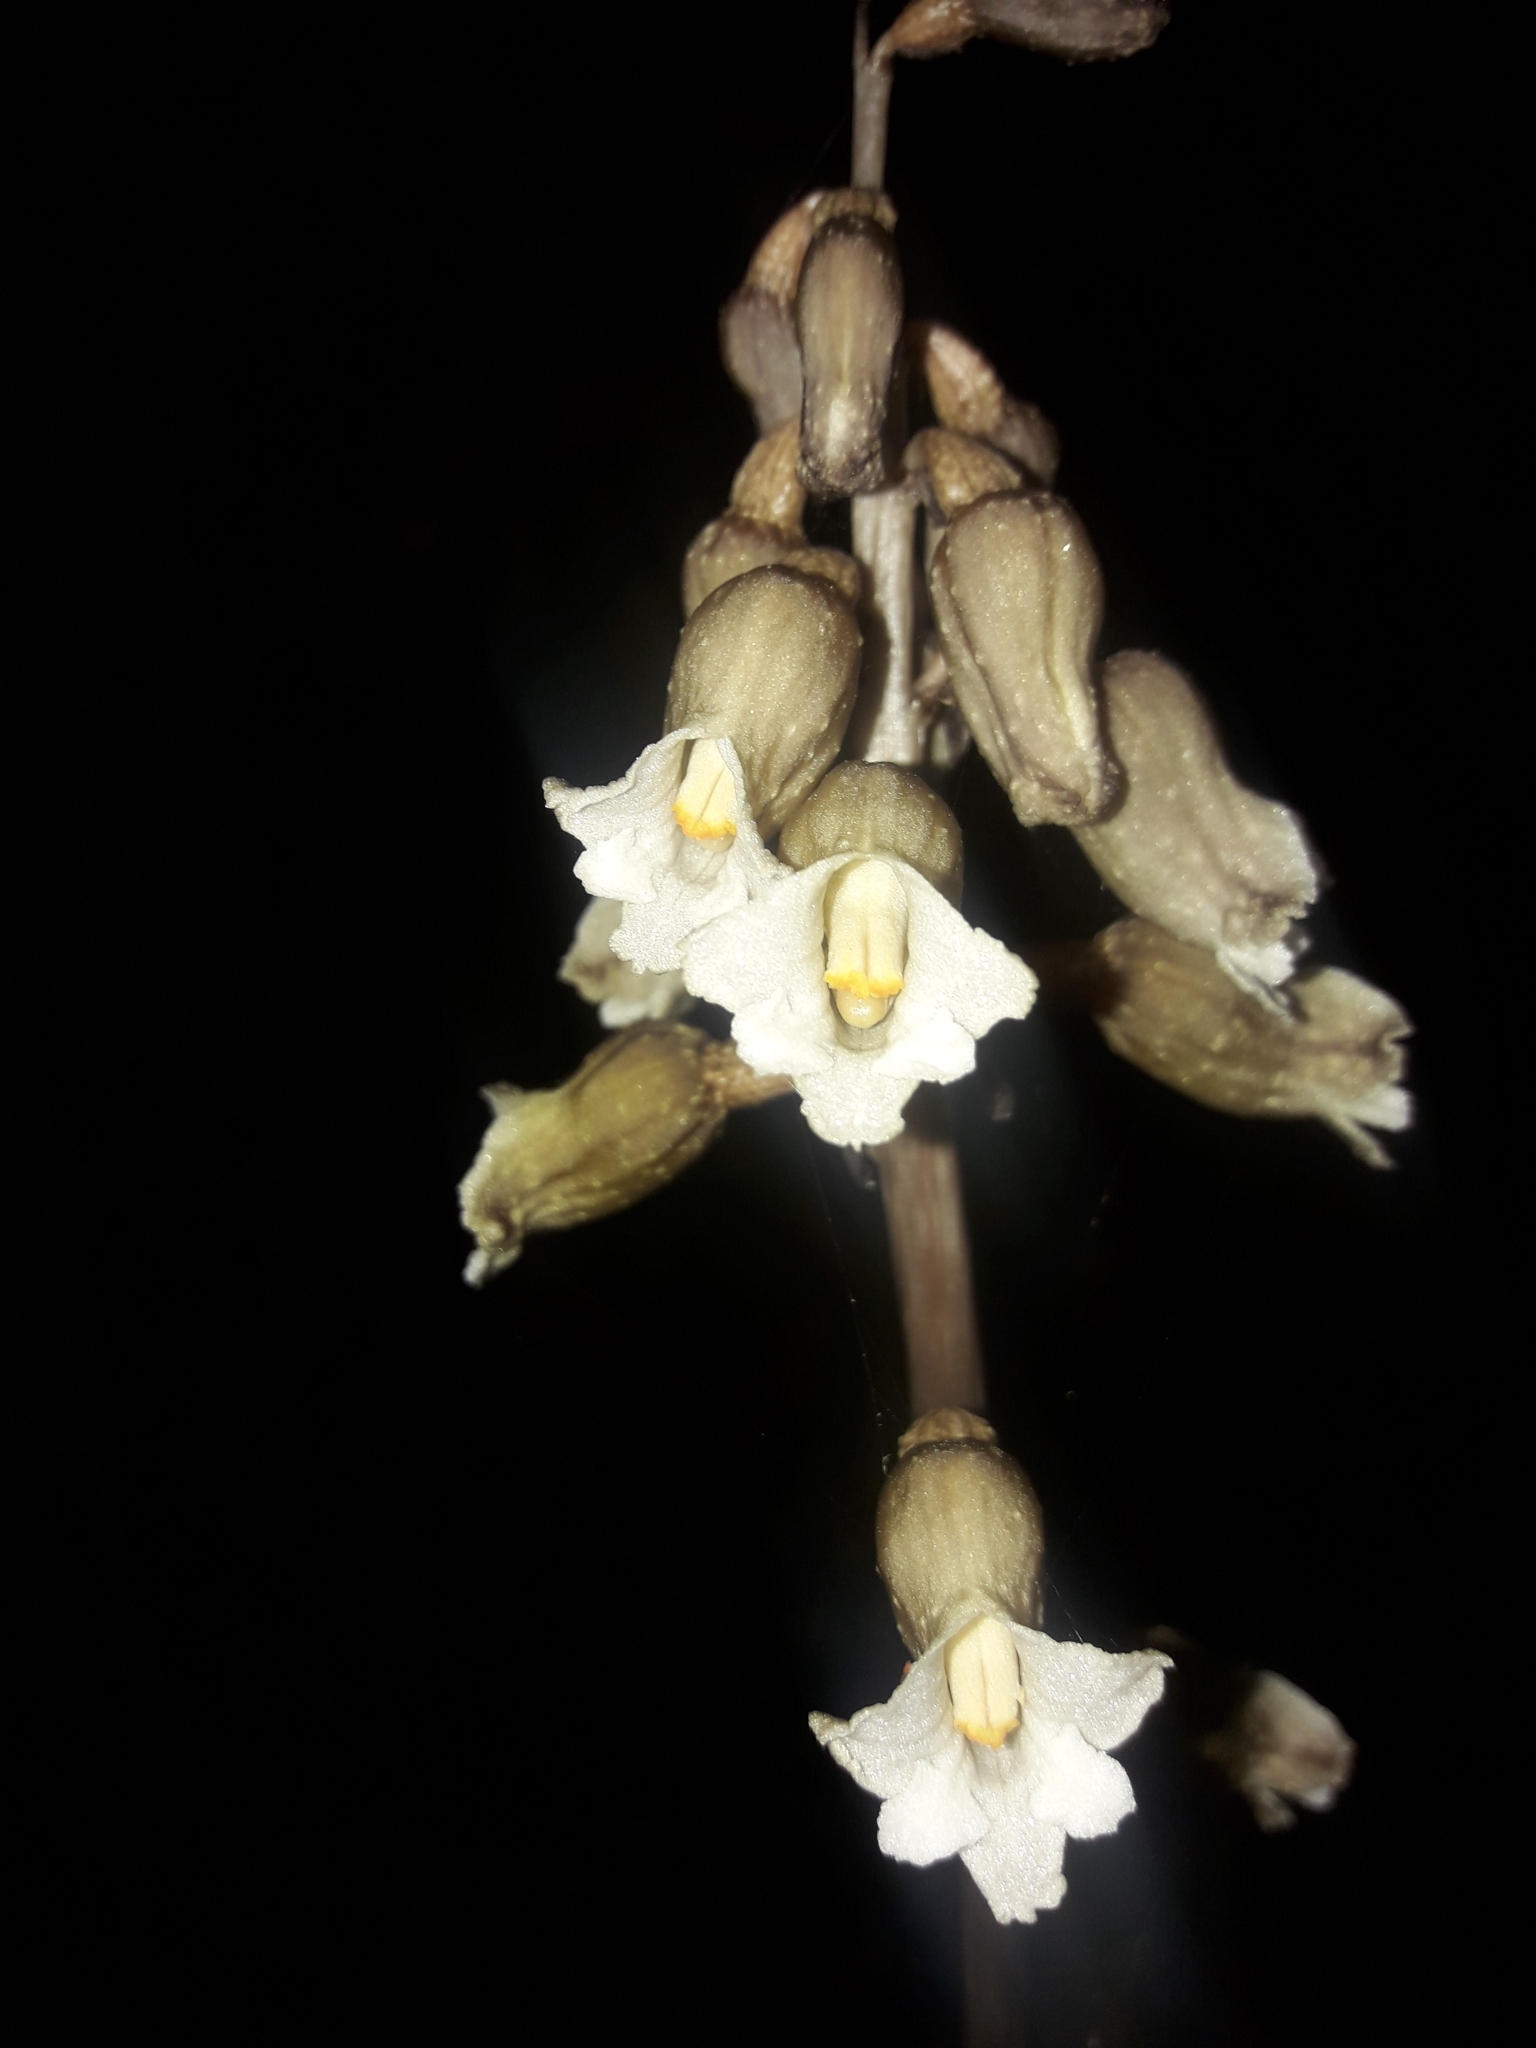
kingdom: Plantae
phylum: Tracheophyta
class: Liliopsida
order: Asparagales
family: Orchidaceae
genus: Gastrodia
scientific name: Gastrodia procera
